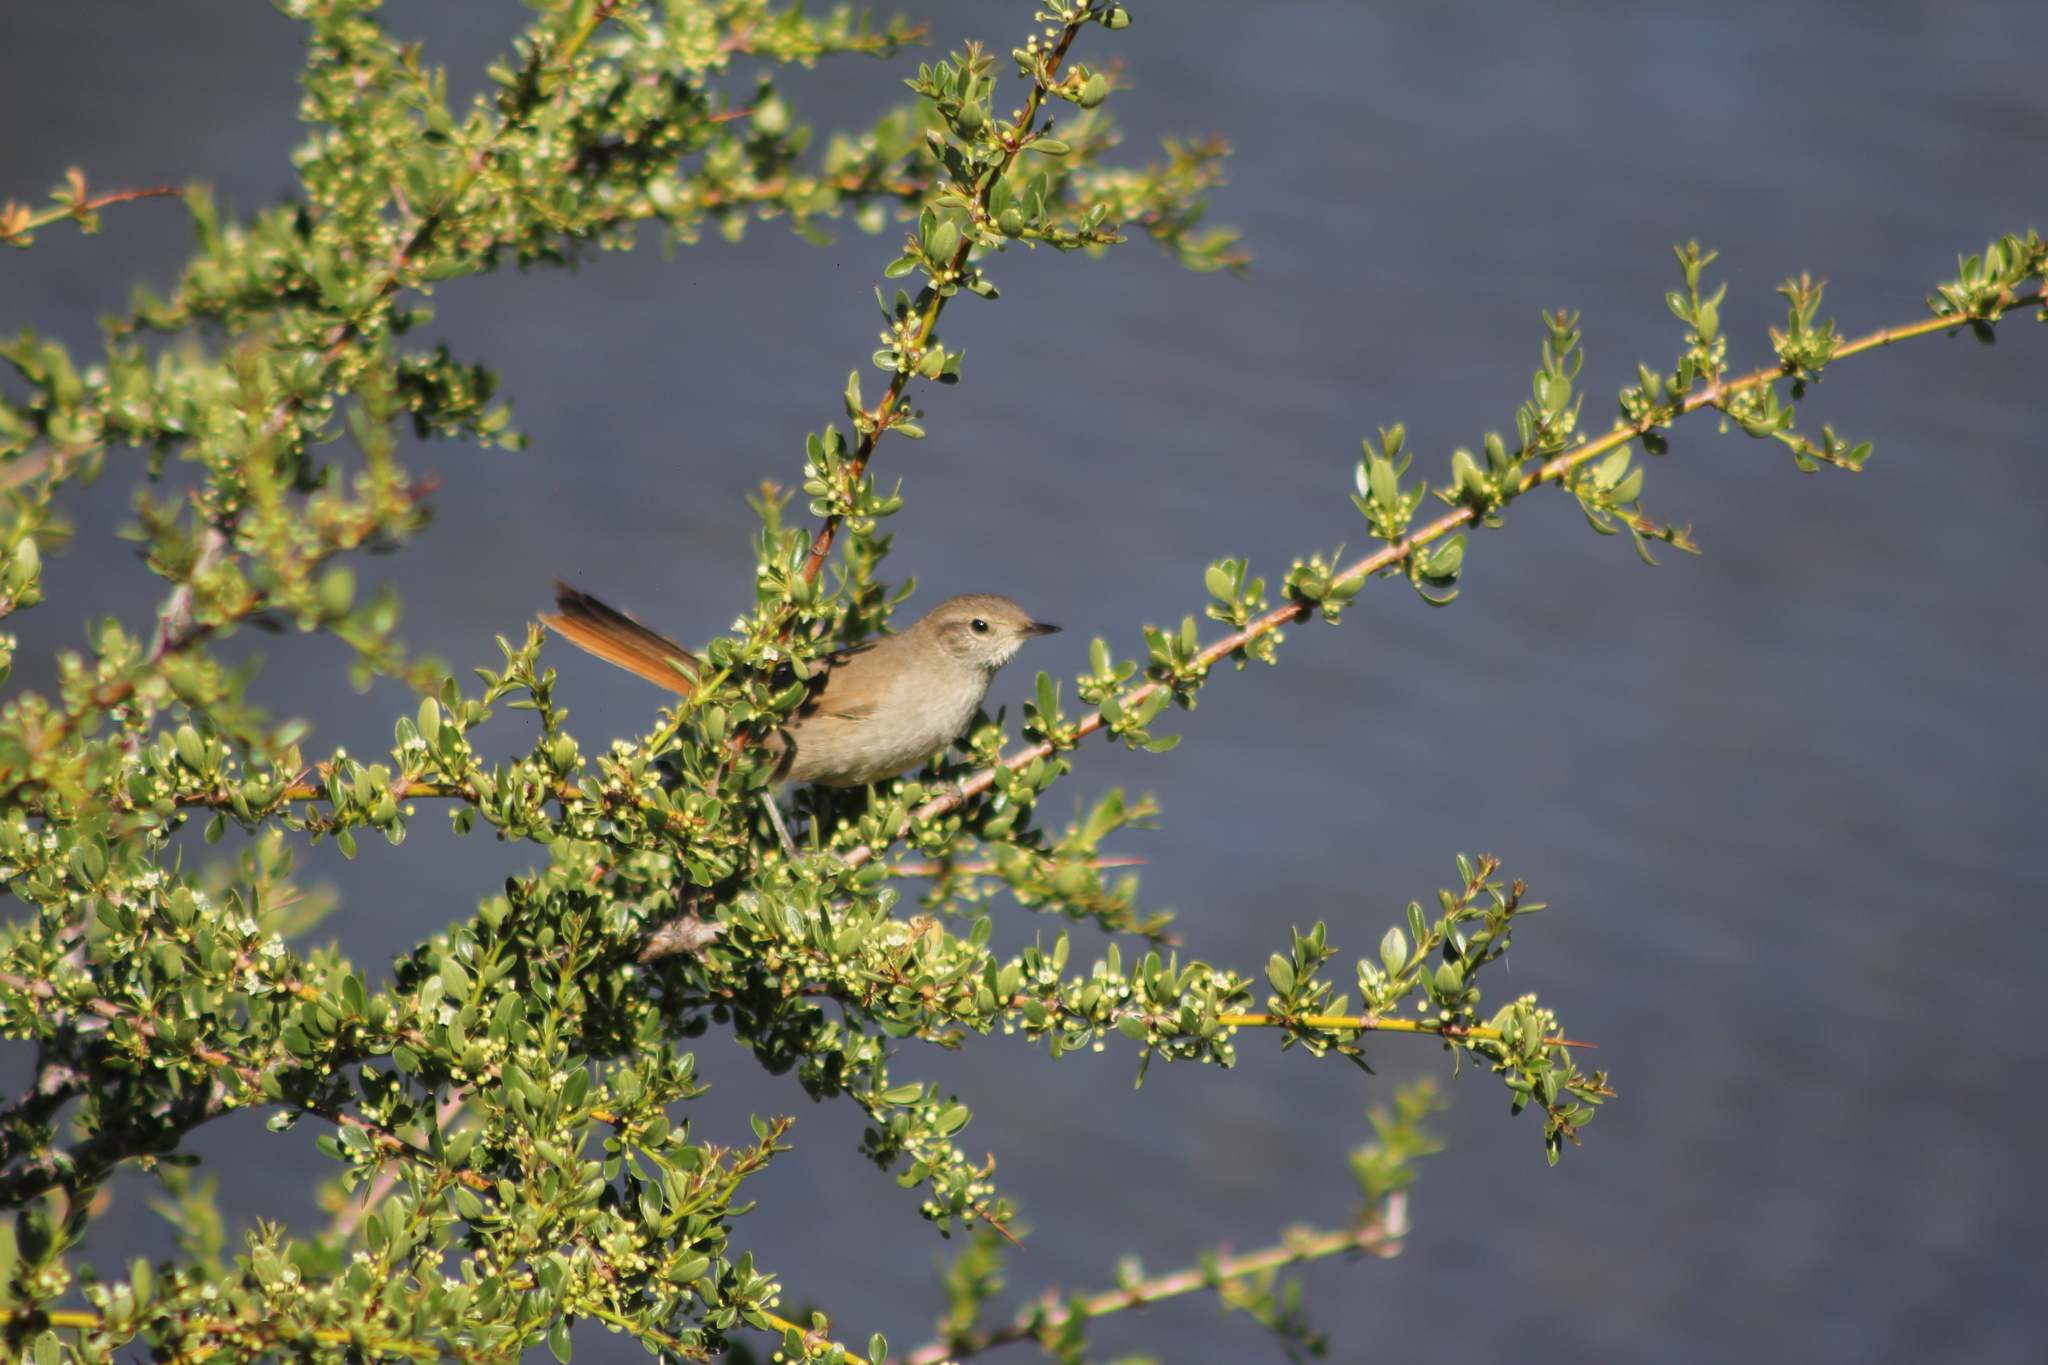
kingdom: Animalia
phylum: Chordata
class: Aves
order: Passeriformes
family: Furnariidae
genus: Asthenes
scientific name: Asthenes pyrrholeuca
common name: Sharp-billed canastero
